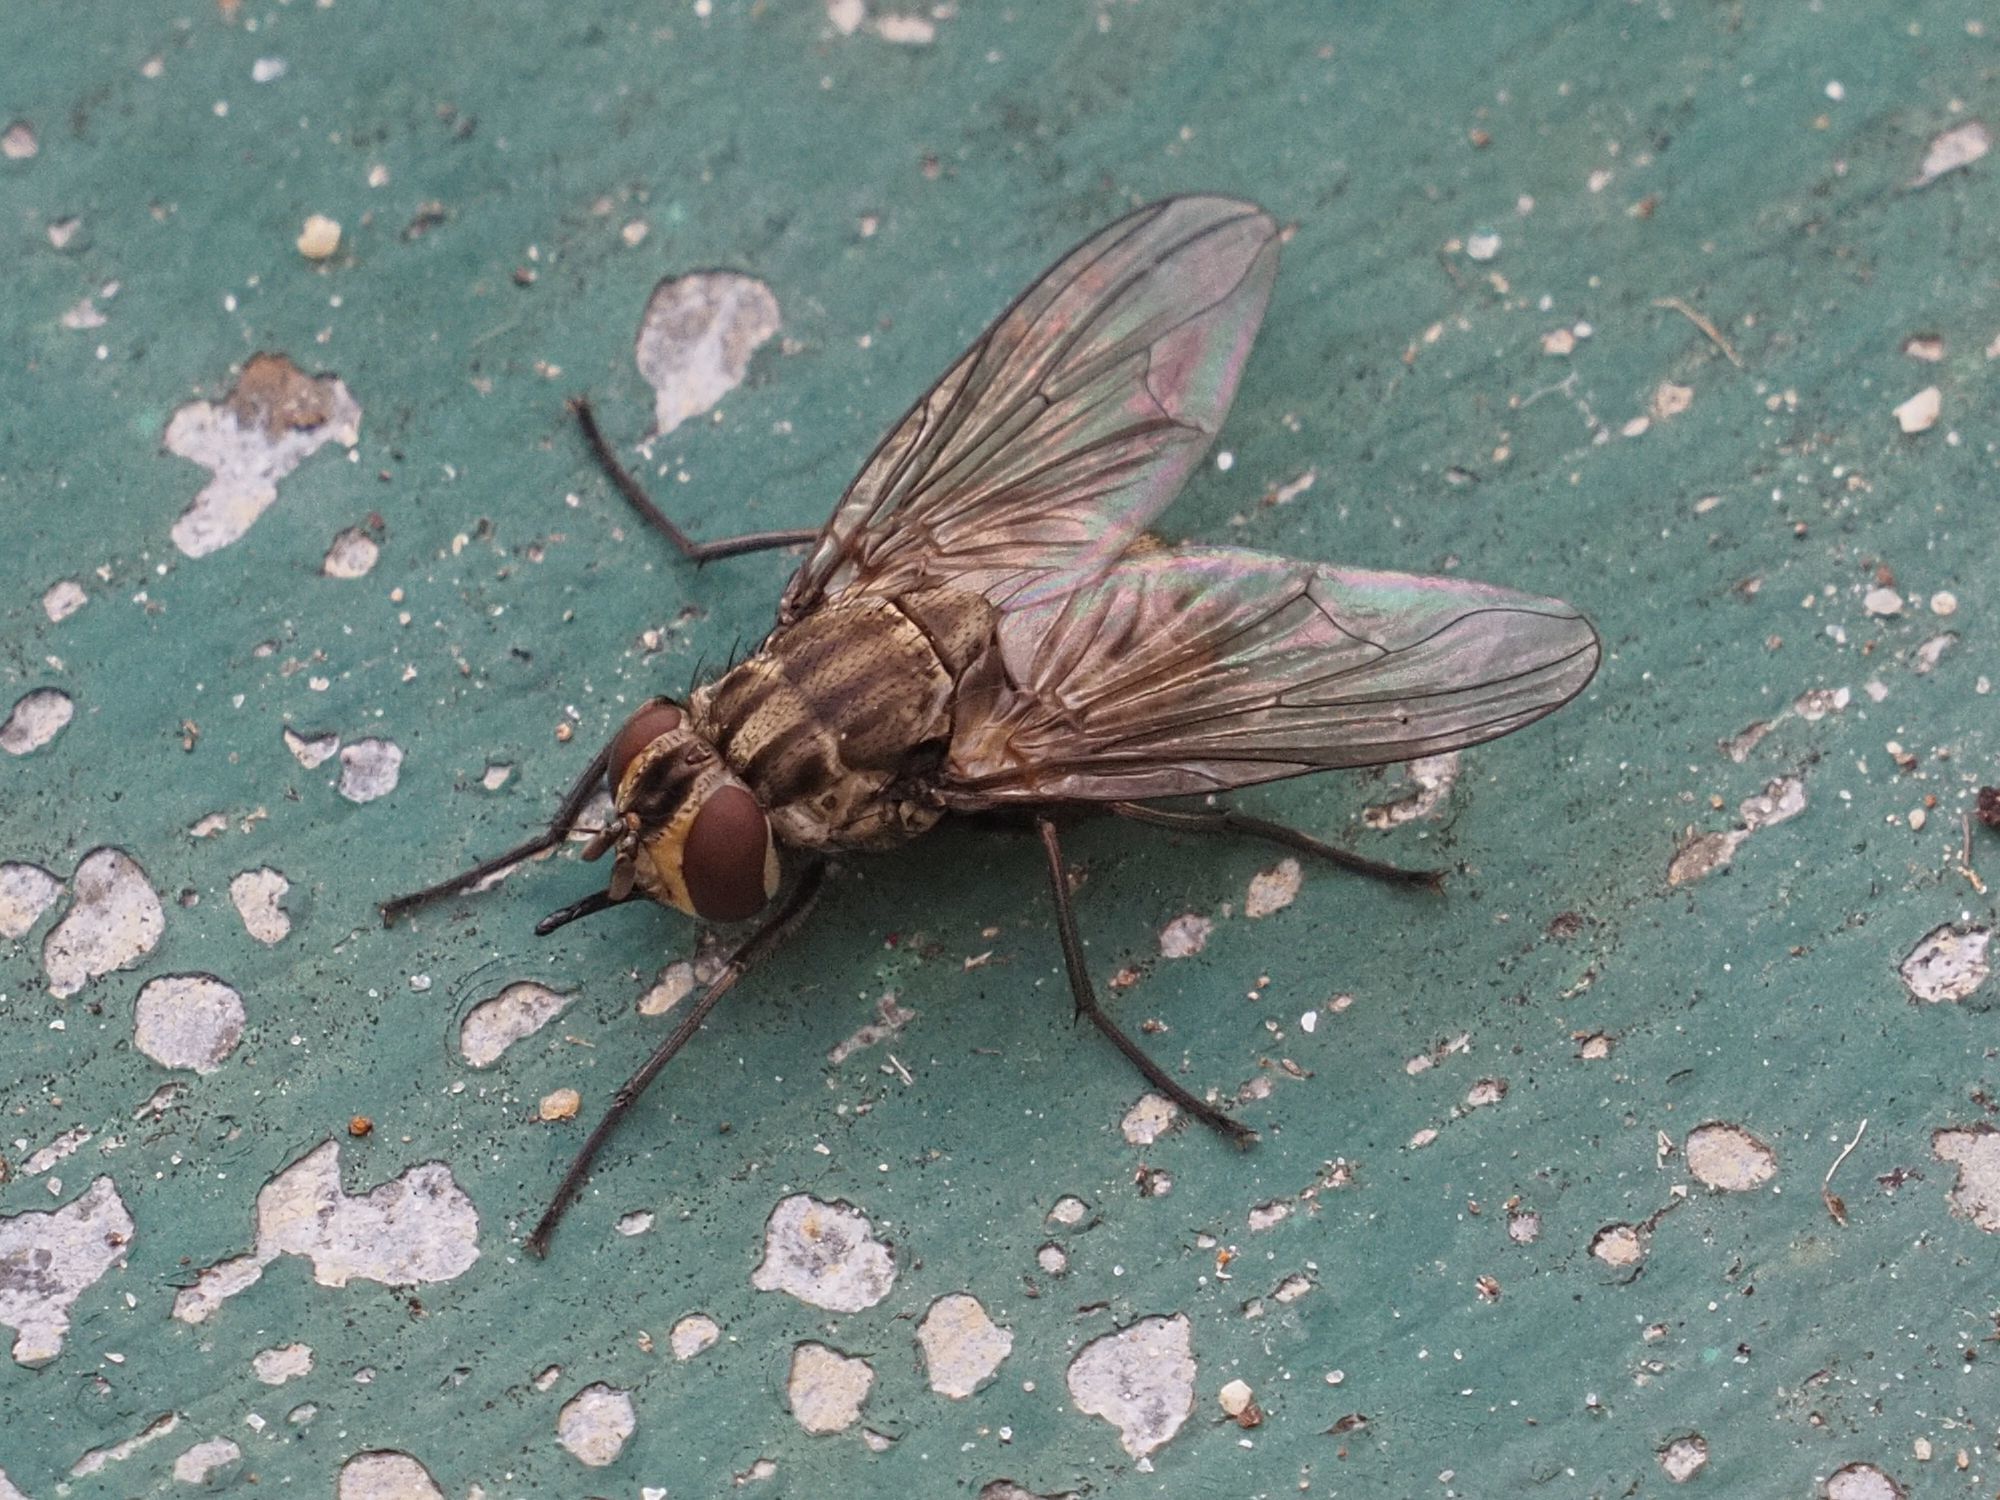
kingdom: Animalia
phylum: Arthropoda
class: Insecta
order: Diptera
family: Muscidae
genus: Stomoxys
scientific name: Stomoxys calcitrans
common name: Stable fly
